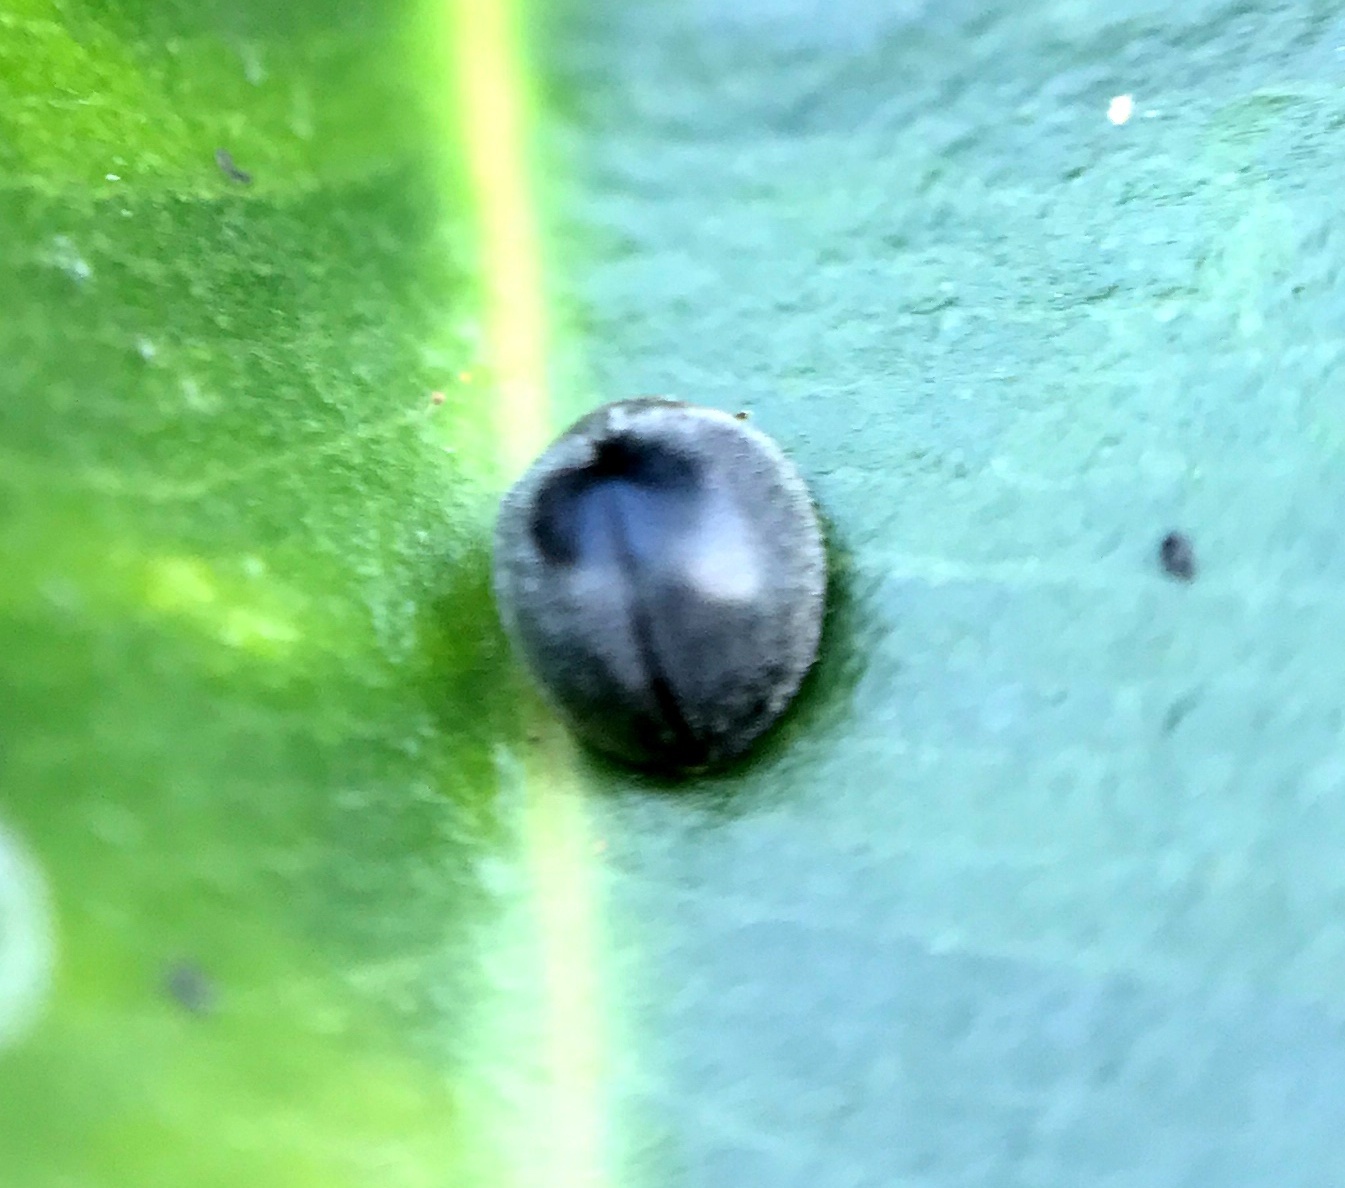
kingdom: Animalia
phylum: Arthropoda
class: Insecta
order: Coleoptera
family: Coccinellidae
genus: Azya
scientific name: Azya
